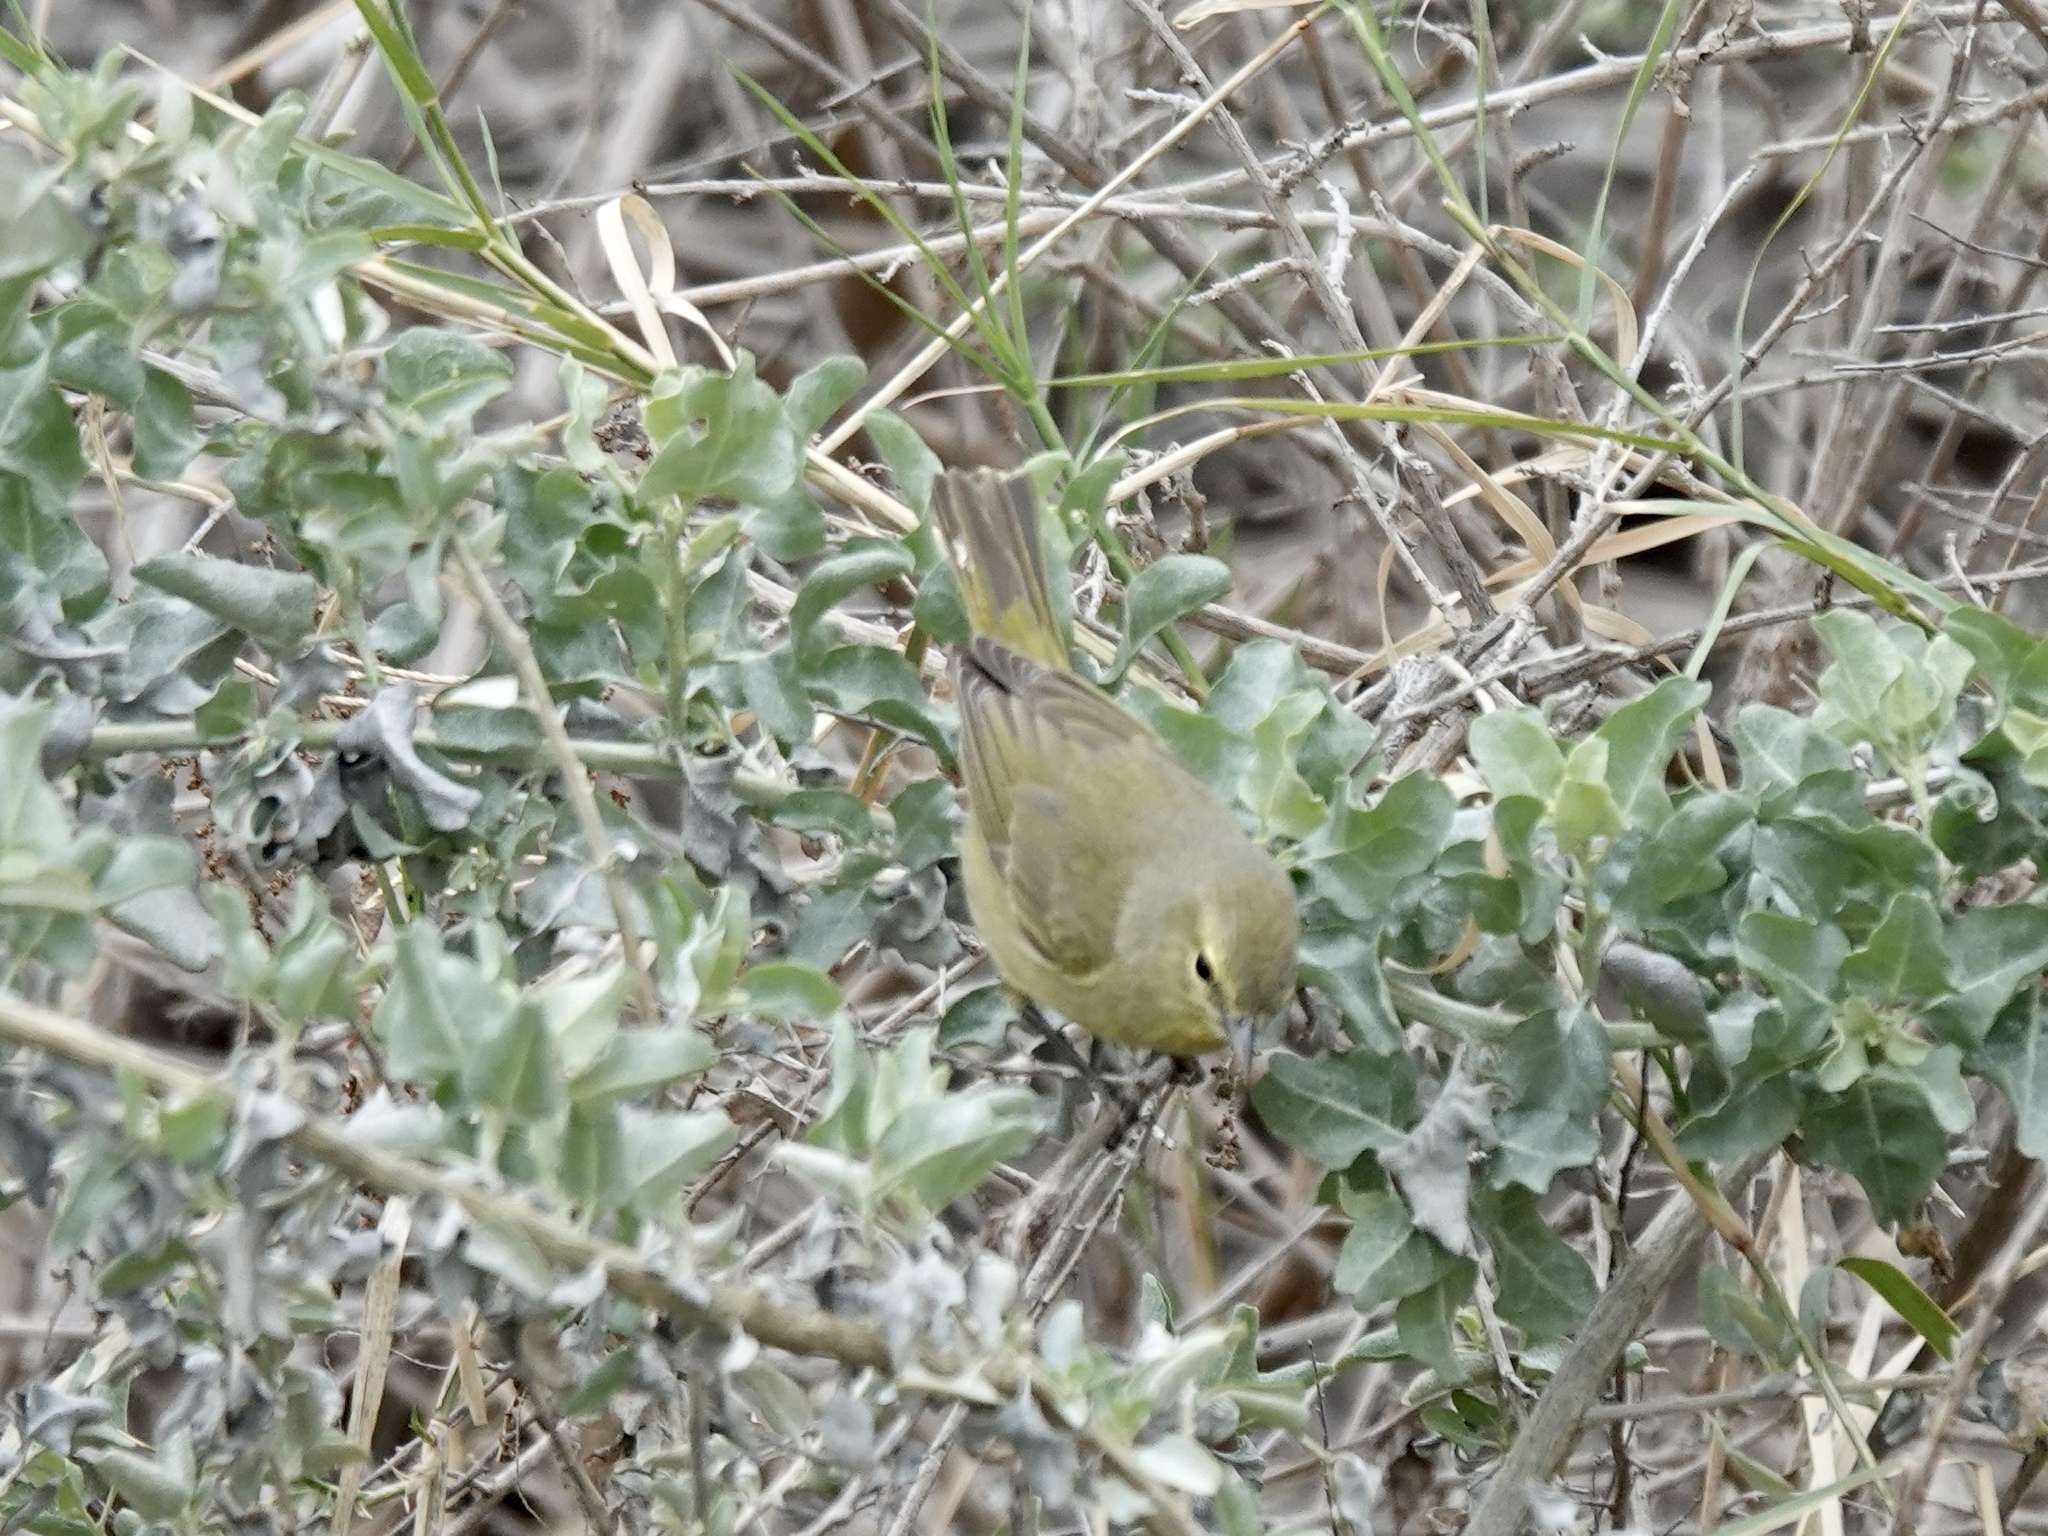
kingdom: Animalia
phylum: Chordata
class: Aves
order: Passeriformes
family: Parulidae
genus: Leiothlypis
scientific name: Leiothlypis celata
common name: Orange-crowned warbler
